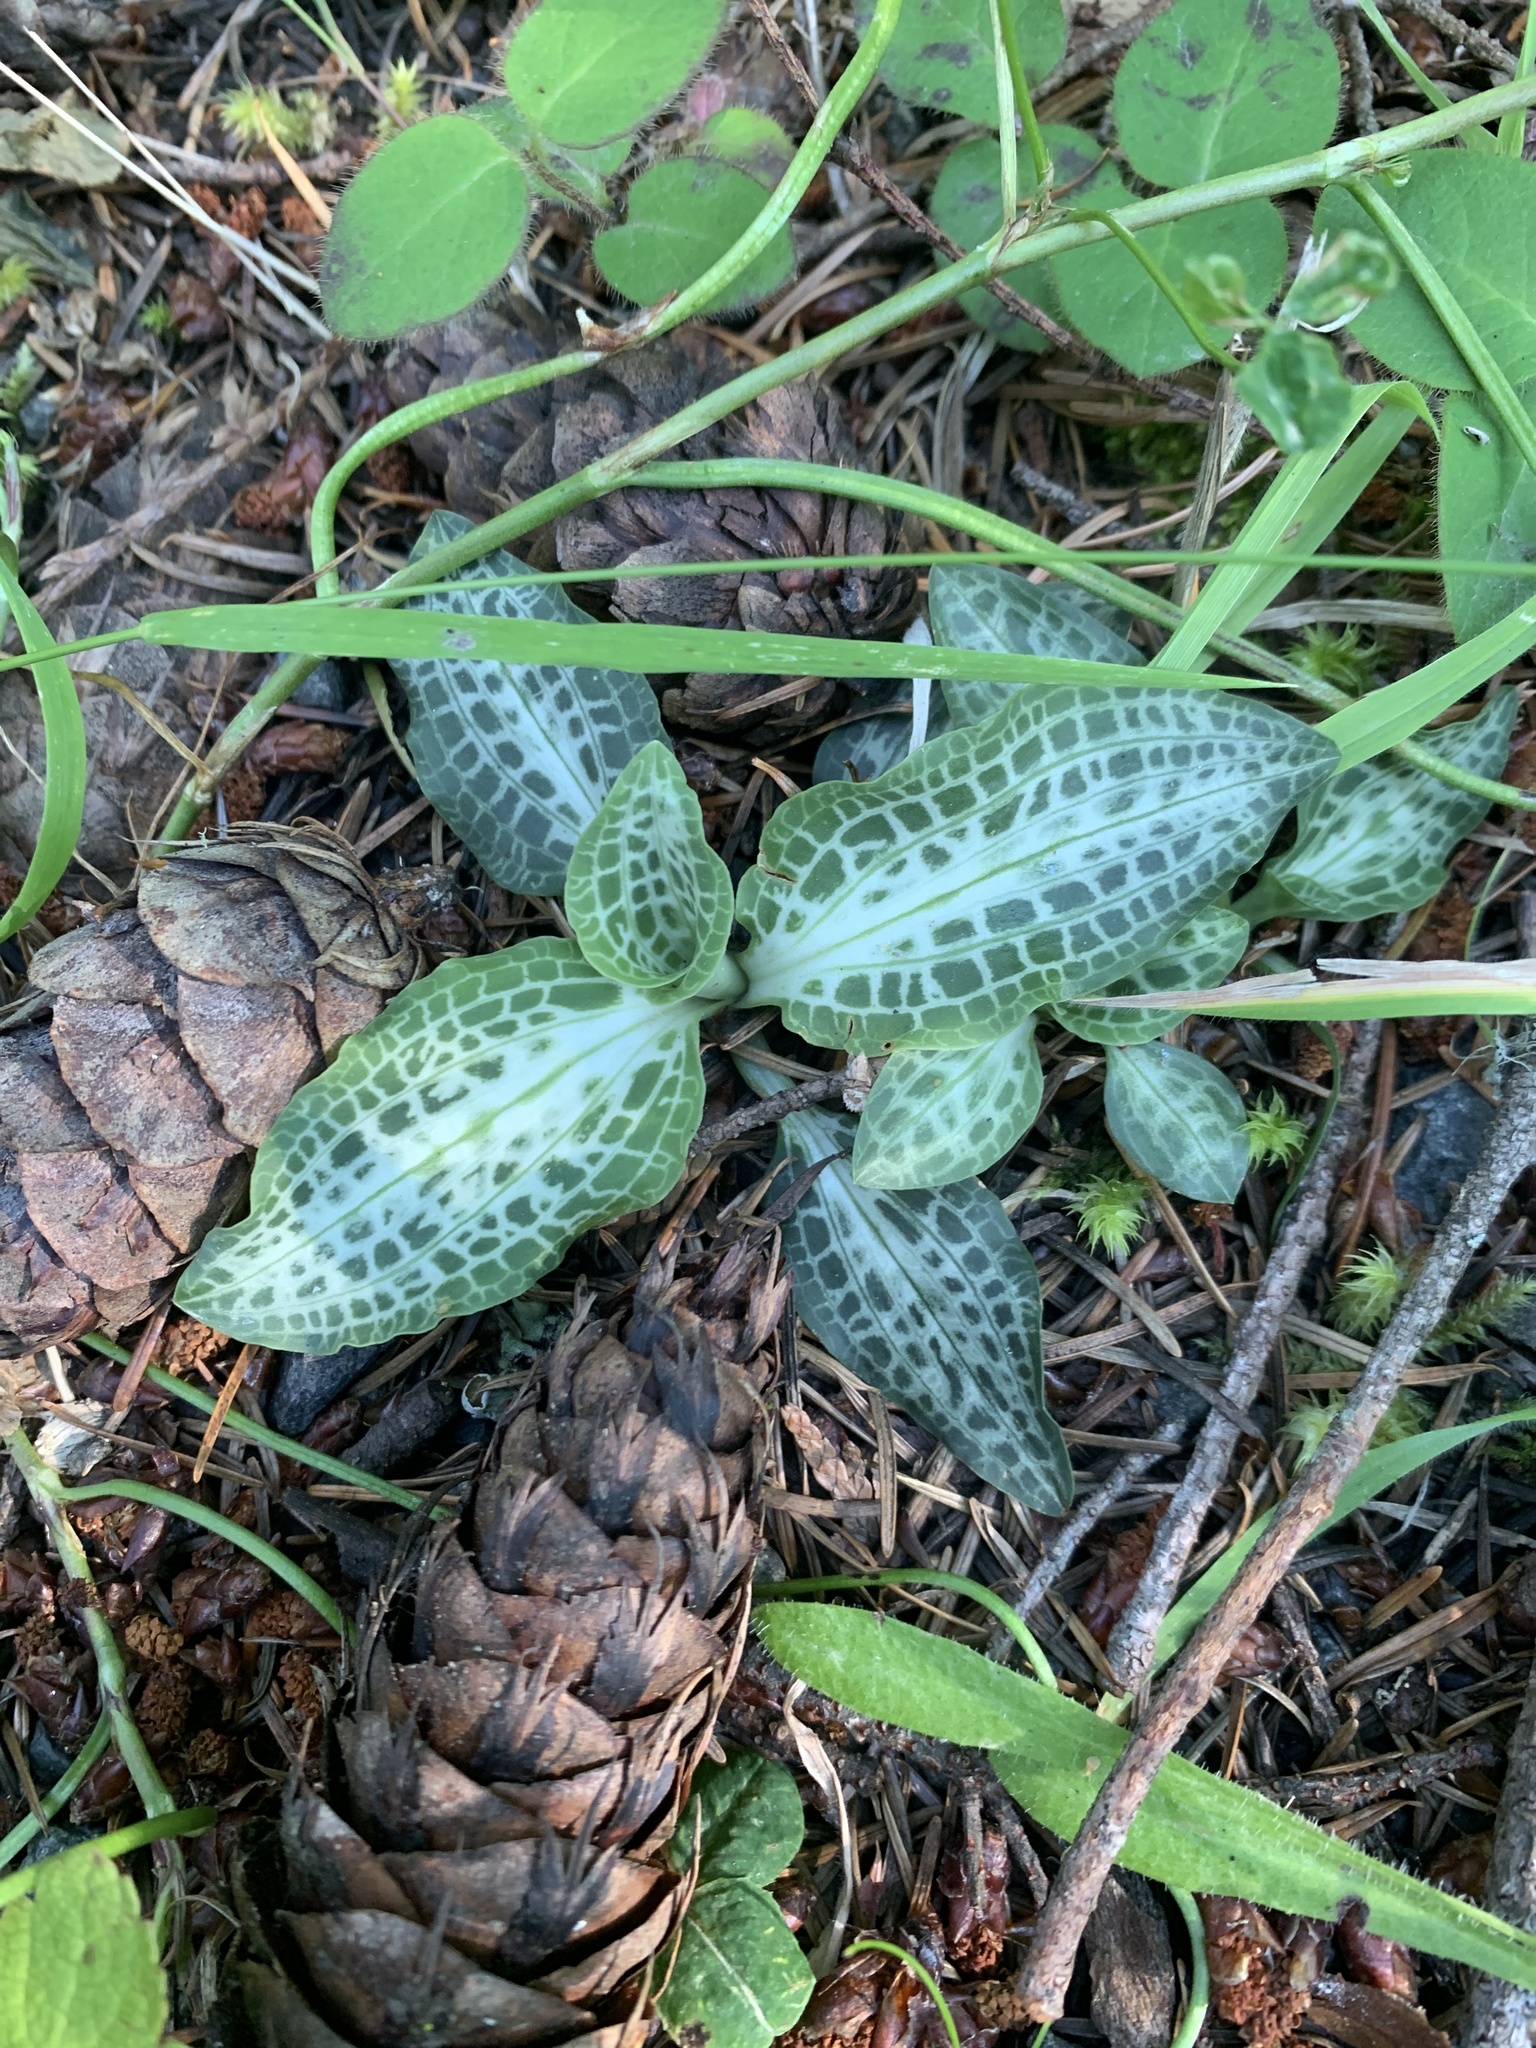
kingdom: Plantae
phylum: Tracheophyta
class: Liliopsida
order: Asparagales
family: Orchidaceae
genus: Goodyera
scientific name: Goodyera oblongifolia
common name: Giant rattlesnake-plantain
